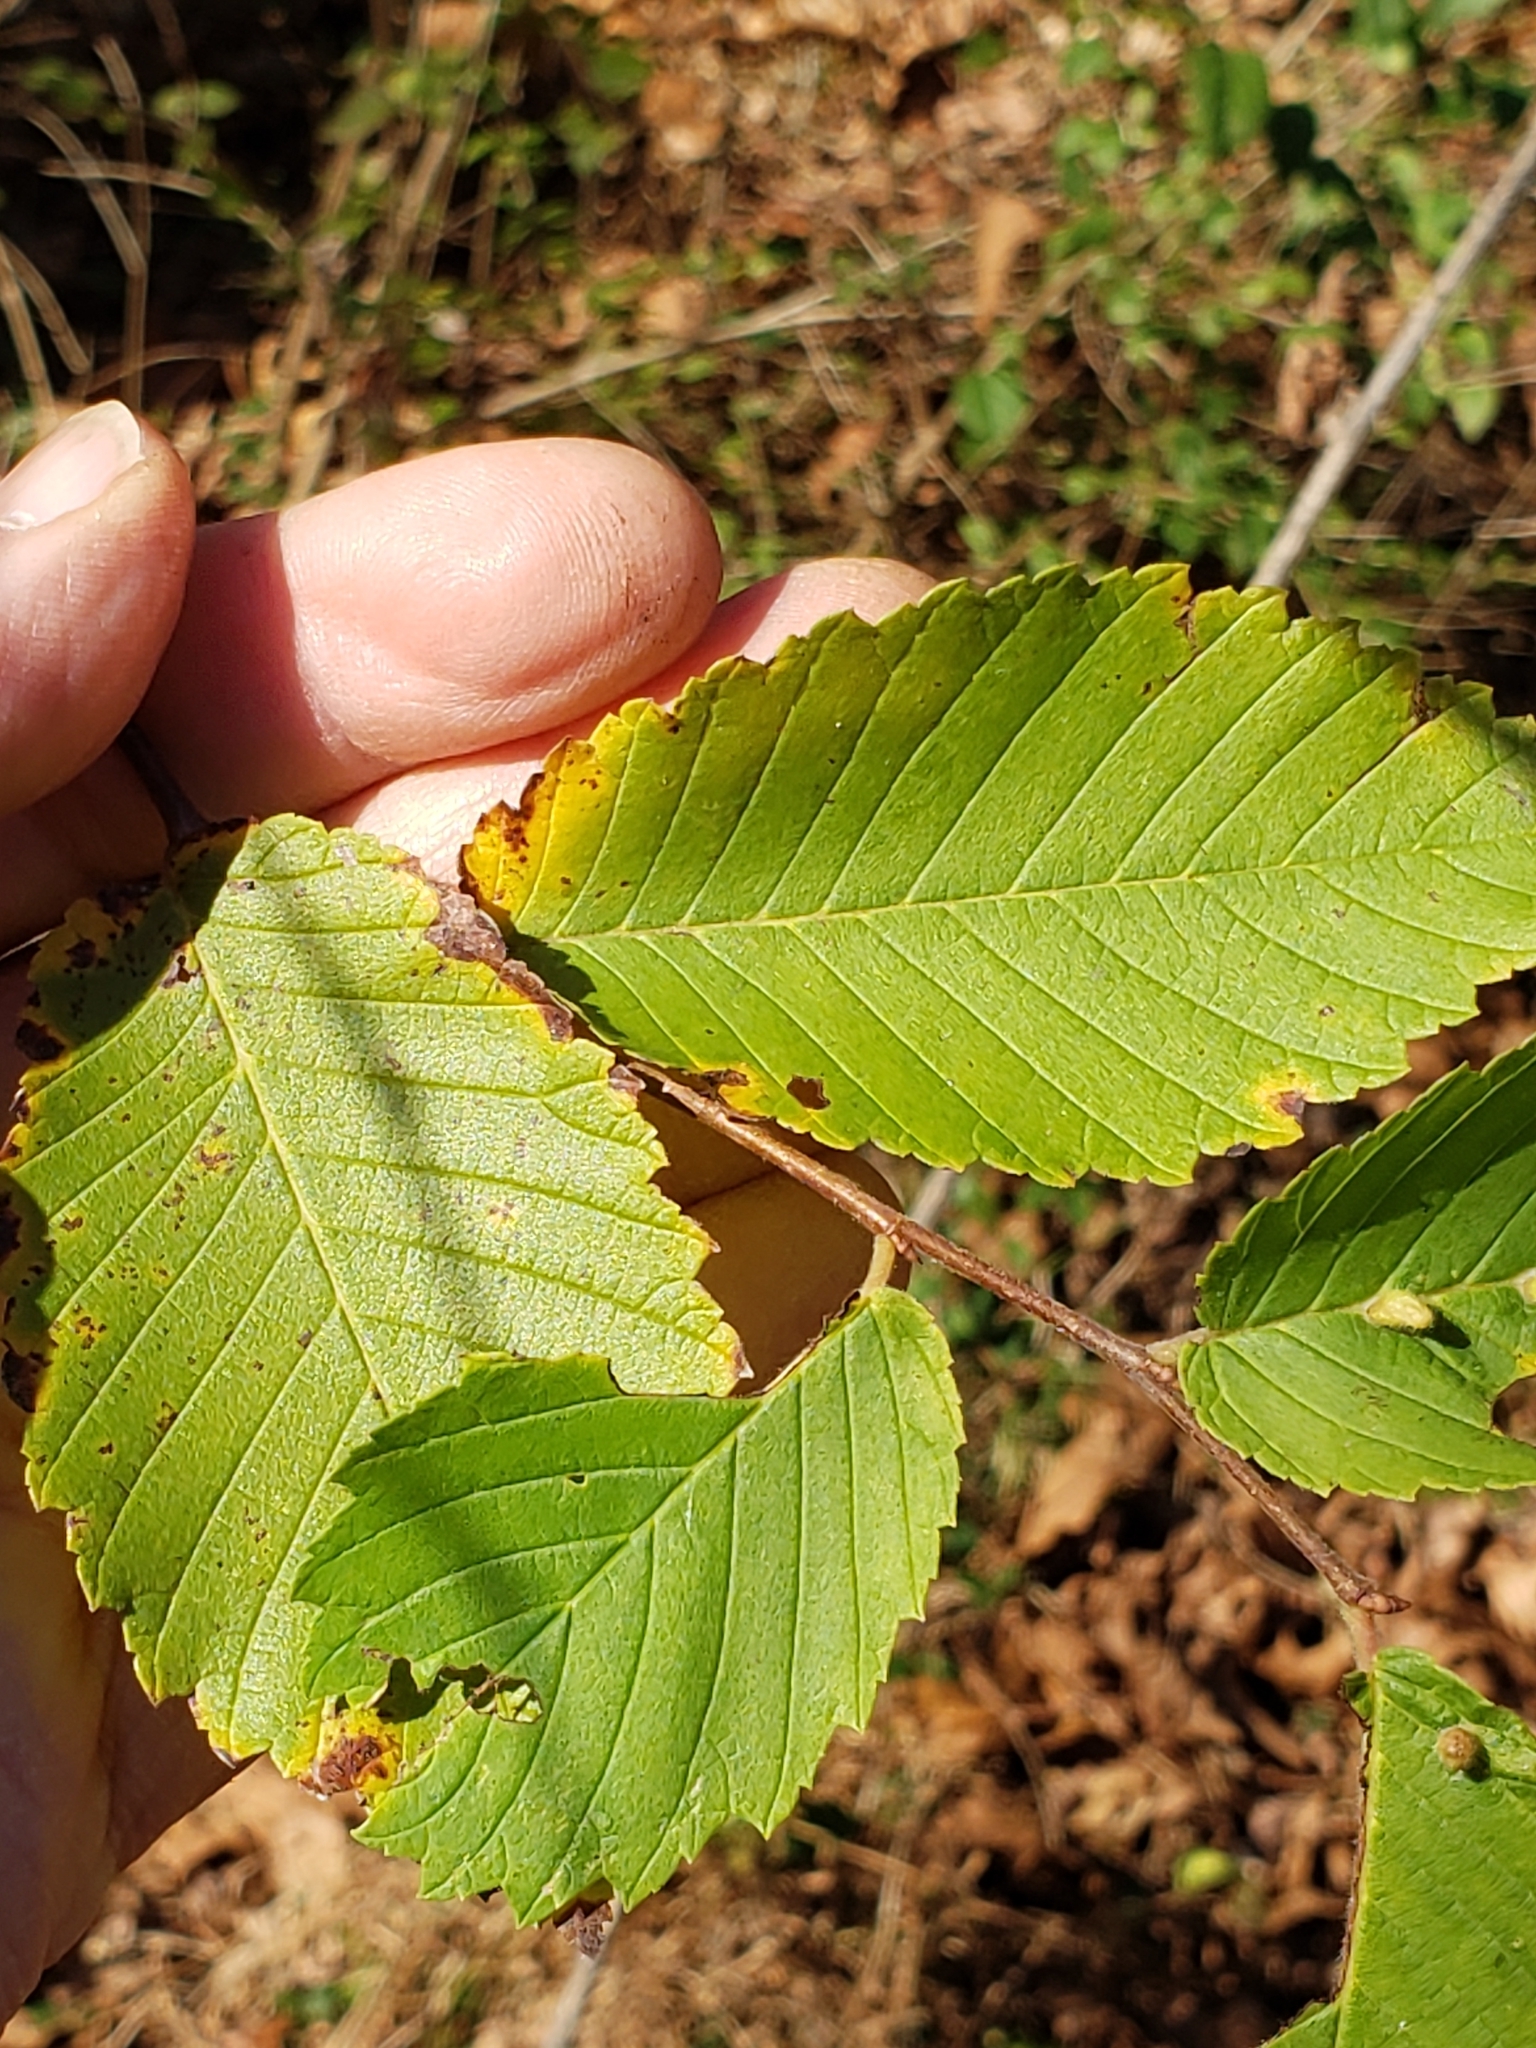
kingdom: Animalia
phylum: Arthropoda
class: Arachnida
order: Trombidiformes
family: Eriophyidae
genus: Aceria
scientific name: Aceria
